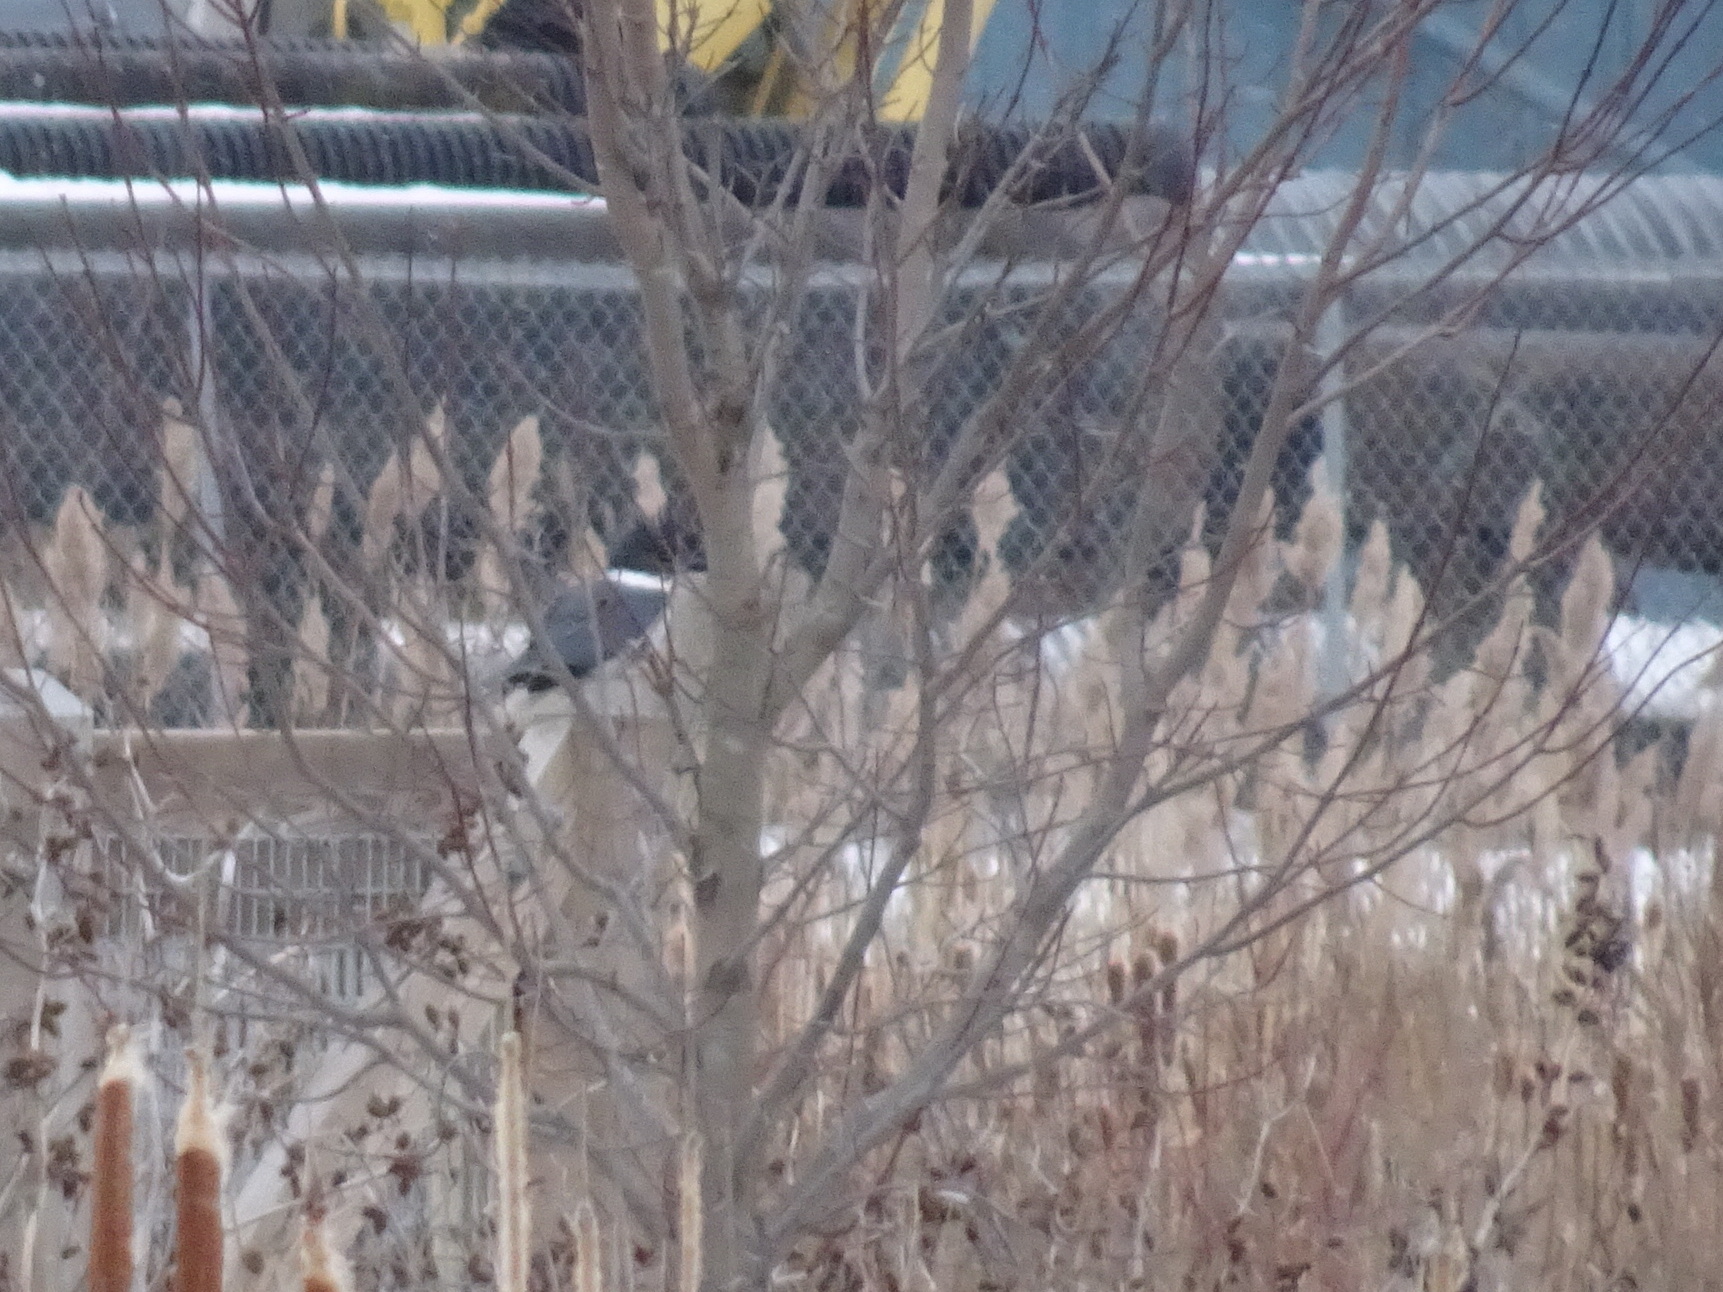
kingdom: Animalia
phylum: Chordata
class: Aves
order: Coraciiformes
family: Alcedinidae
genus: Megaceryle
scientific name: Megaceryle alcyon
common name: Belted kingfisher
